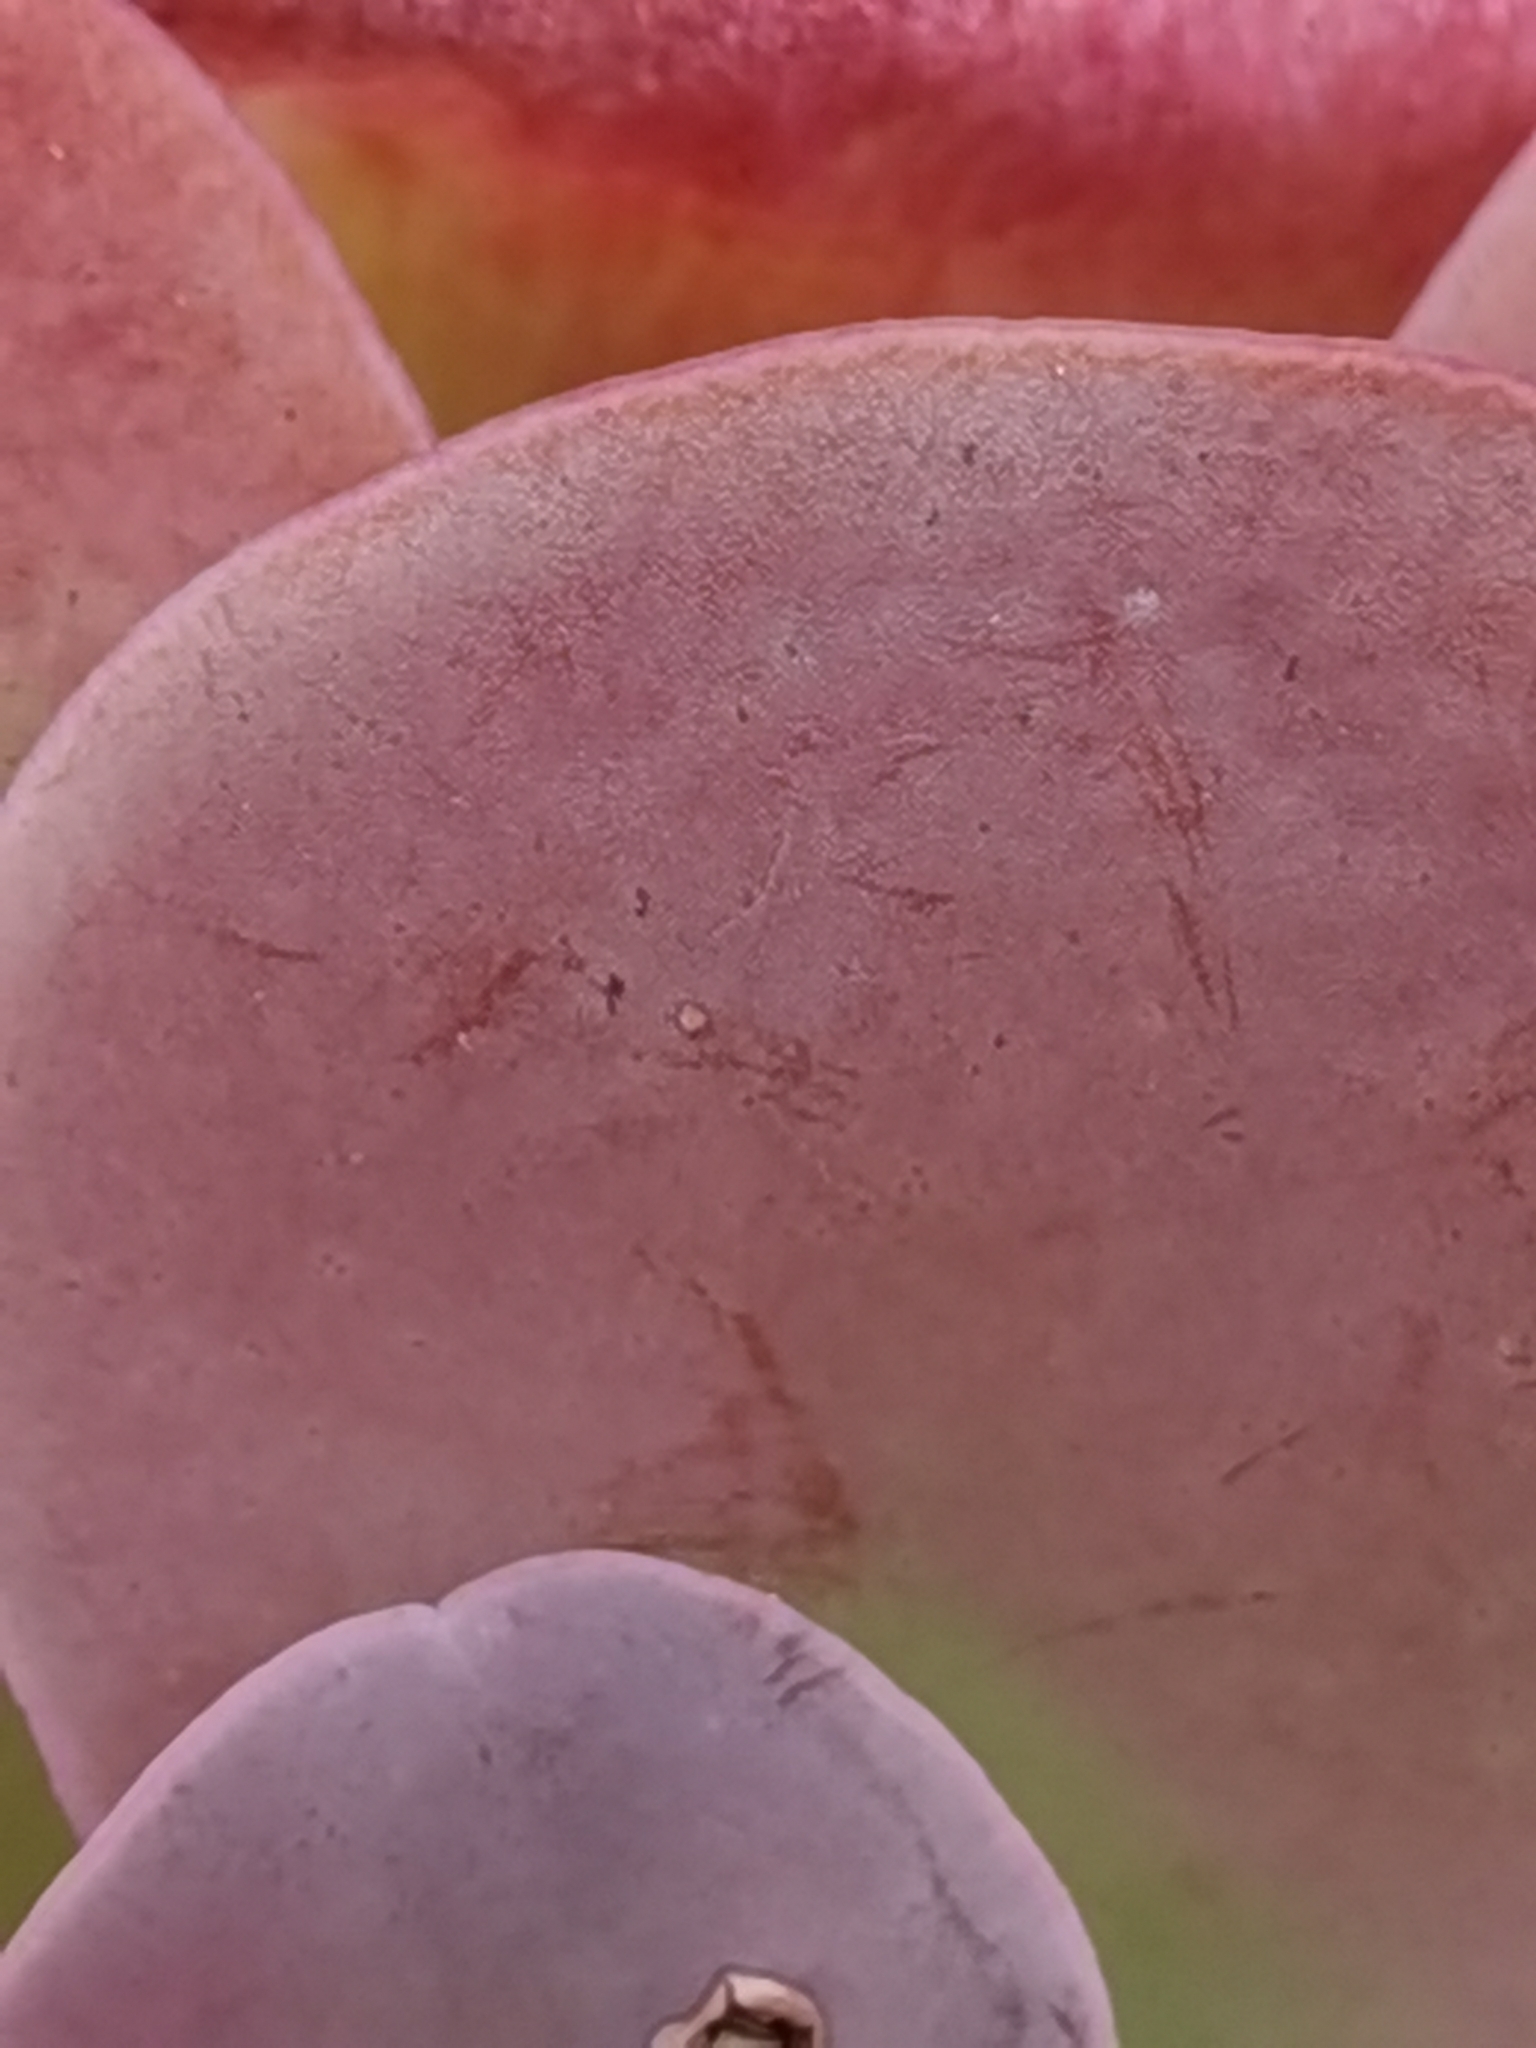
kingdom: Plantae
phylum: Tracheophyta
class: Magnoliopsida
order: Saxifragales
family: Crassulaceae
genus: Aeonium
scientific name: Aeonium diplocyclum
